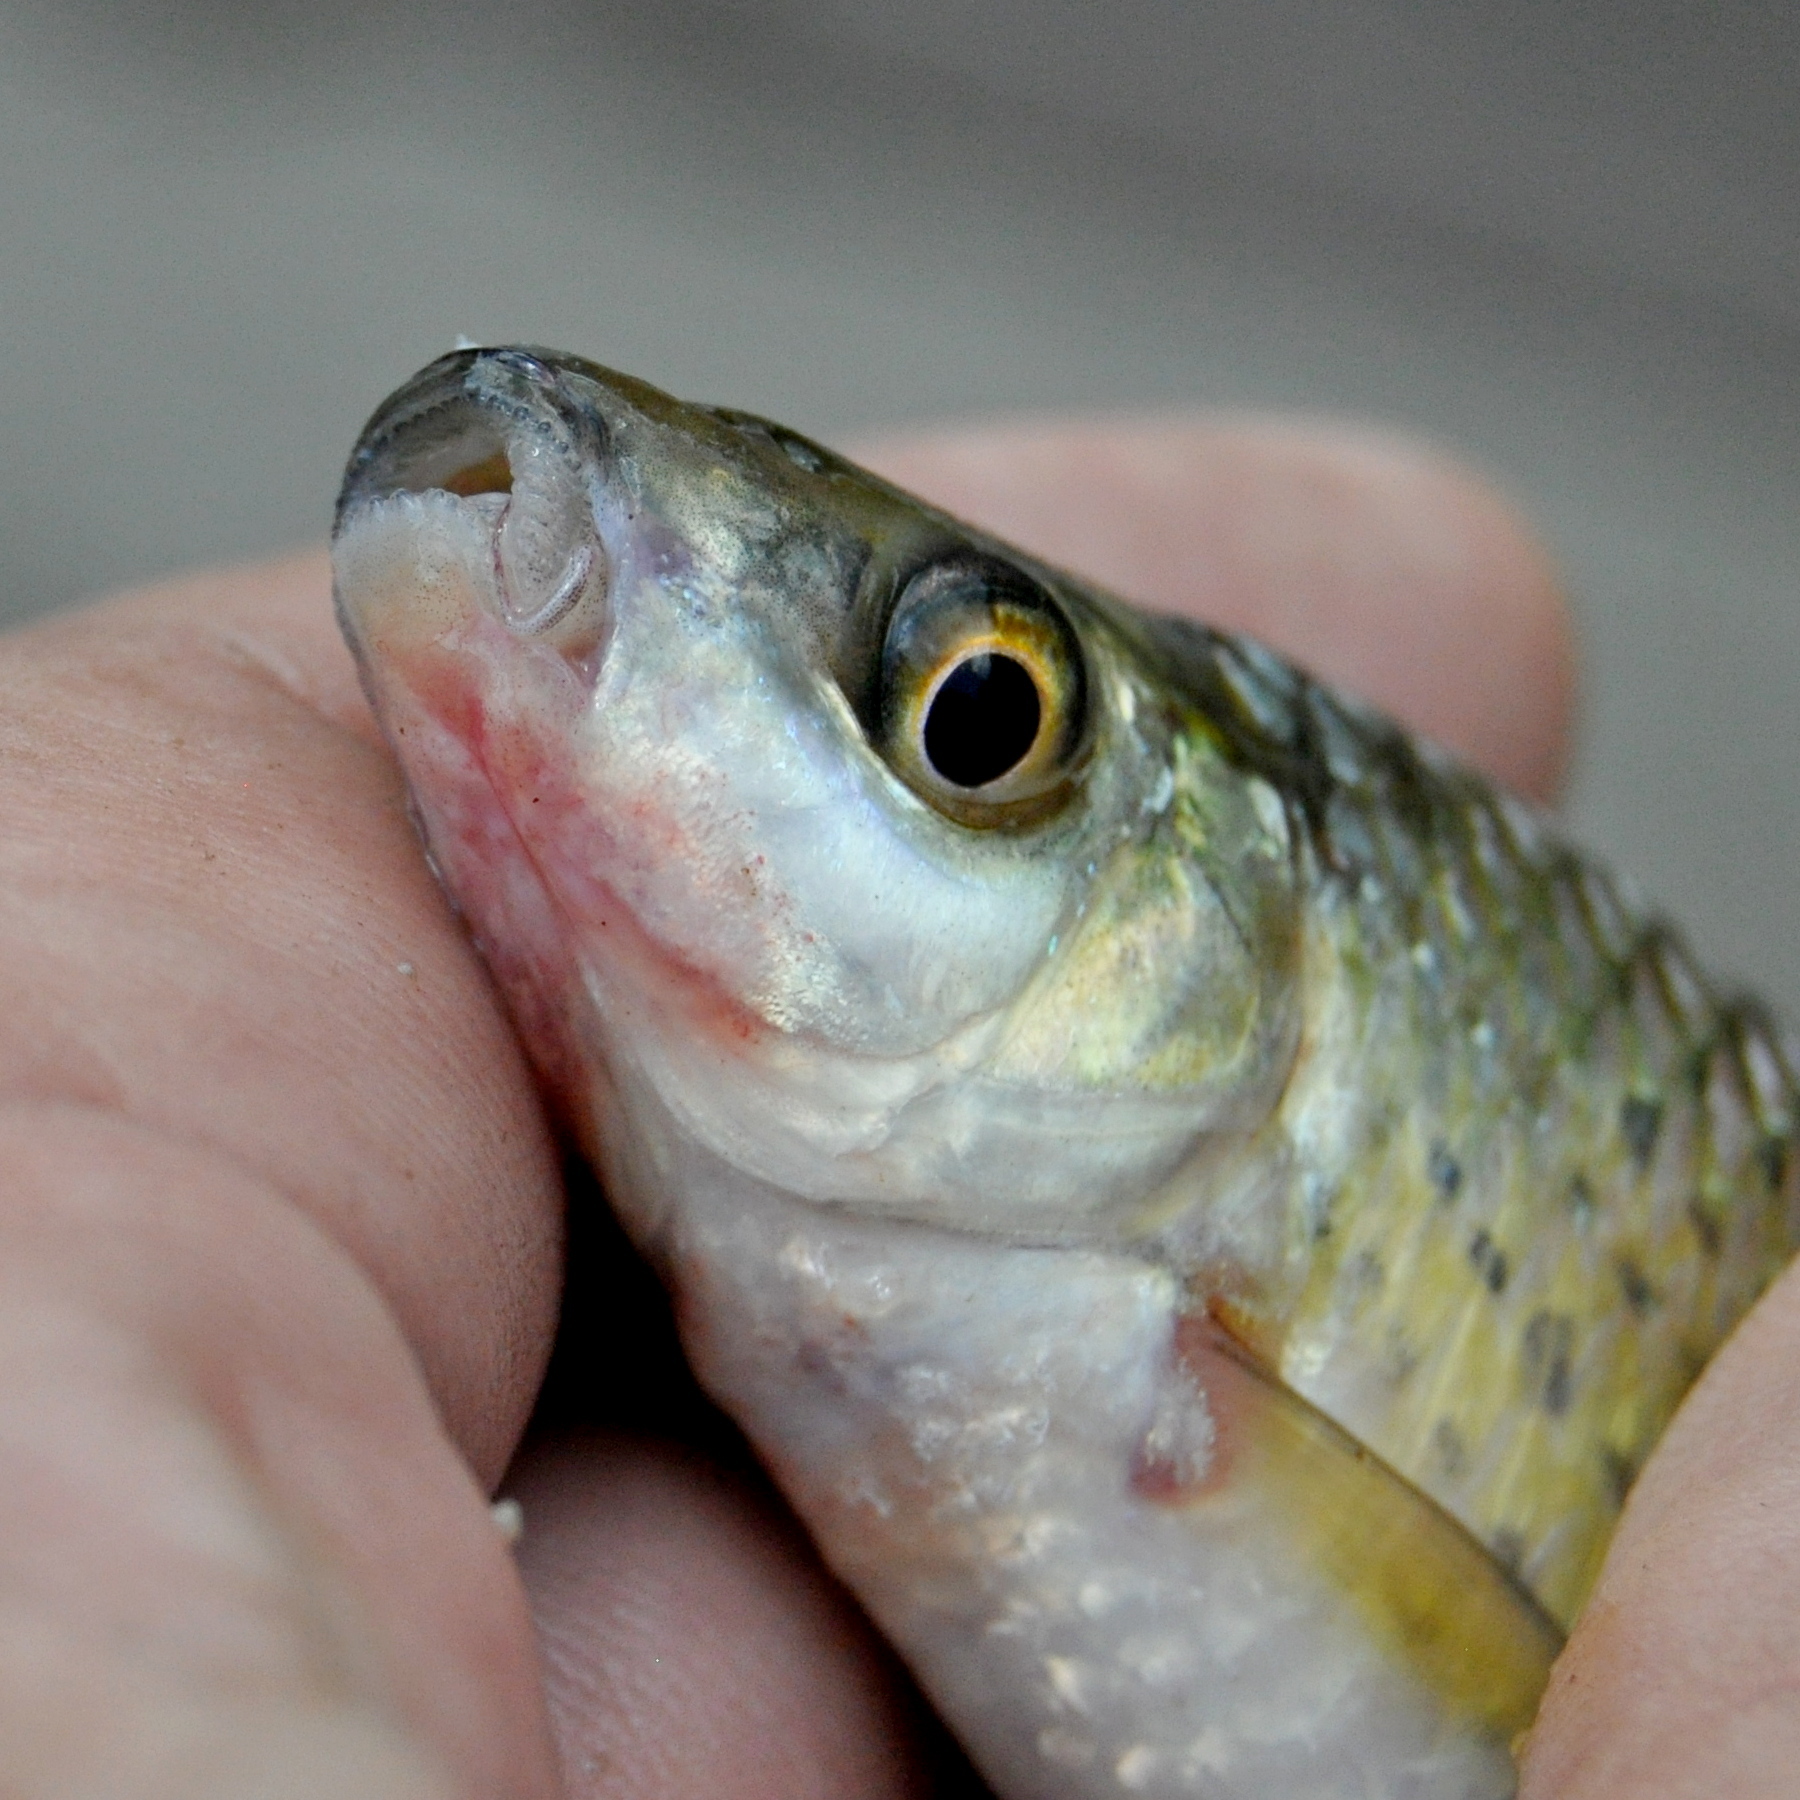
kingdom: Animalia
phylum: Chordata
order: Cypriniformes
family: Cyprinidae
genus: Osteochilus
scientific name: Osteochilus bleekeri
